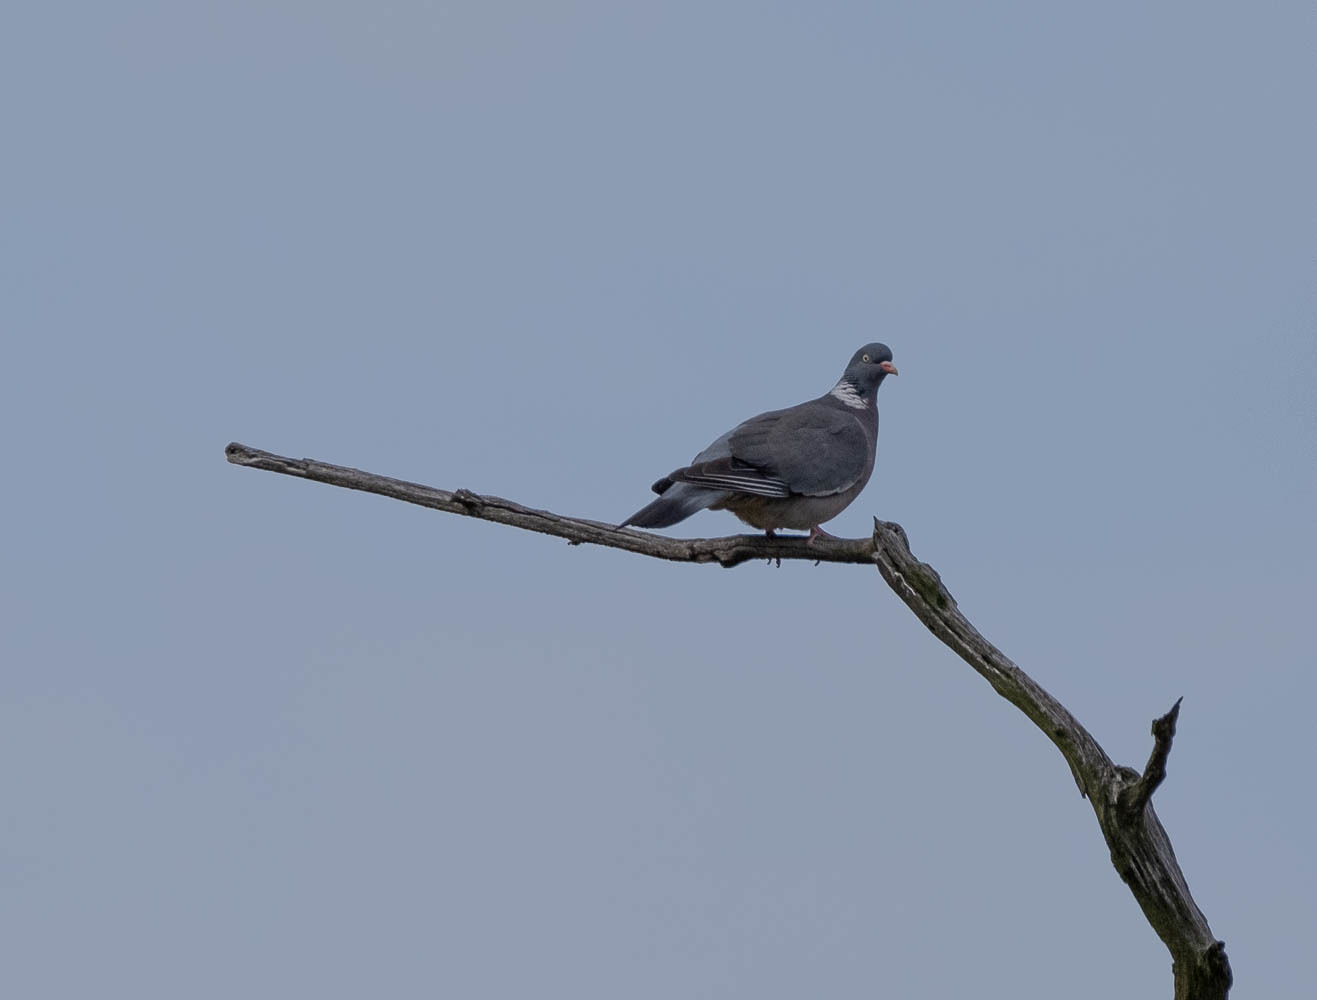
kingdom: Animalia
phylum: Chordata
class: Aves
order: Columbiformes
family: Columbidae
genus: Columba
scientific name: Columba palumbus
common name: Common wood pigeon
